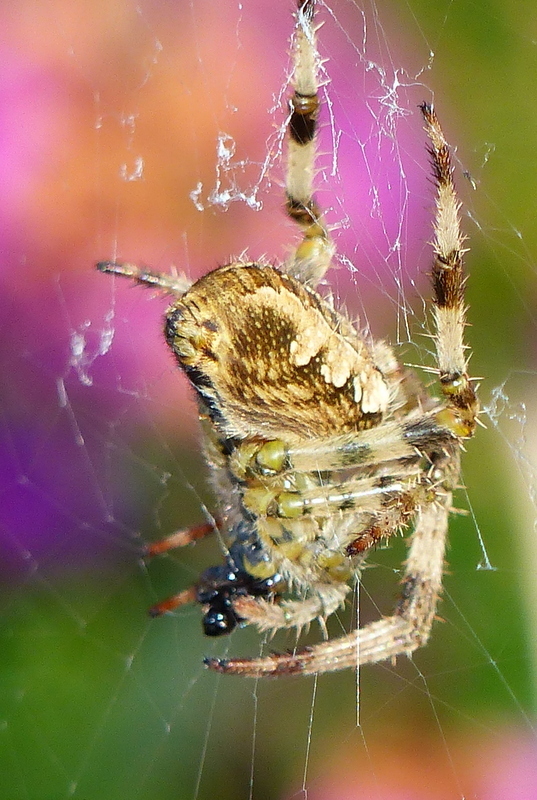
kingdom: Animalia
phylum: Arthropoda
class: Arachnida
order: Araneae
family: Araneidae
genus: Araneus
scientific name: Araneus diadematus
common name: Cross orbweaver
